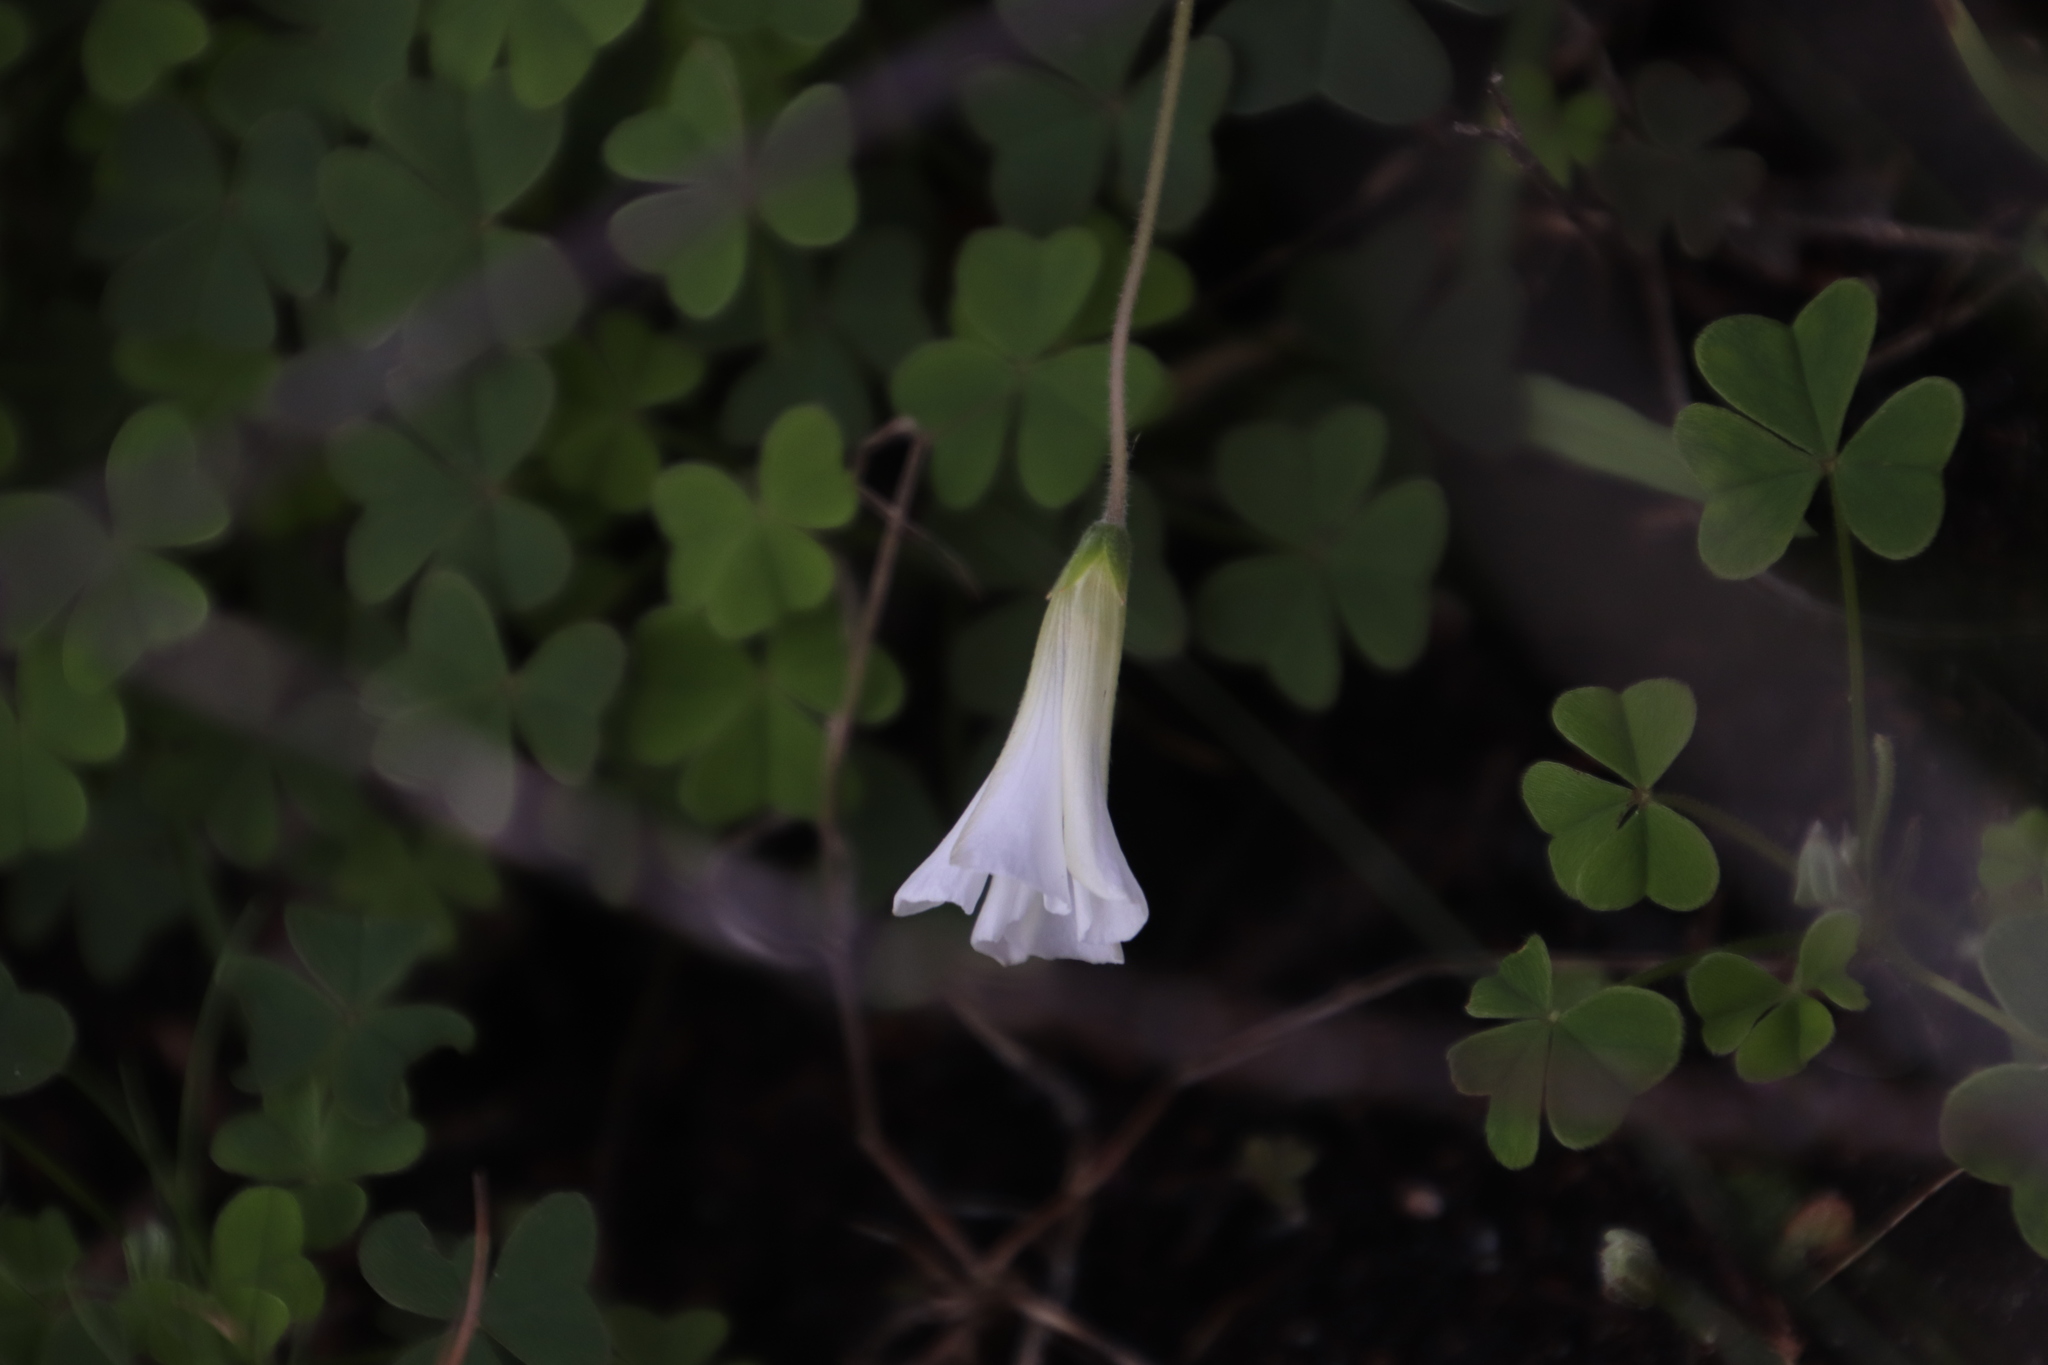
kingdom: Plantae
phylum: Tracheophyta
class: Magnoliopsida
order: Oxalidales
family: Oxalidaceae
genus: Oxalis
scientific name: Oxalis lanata
